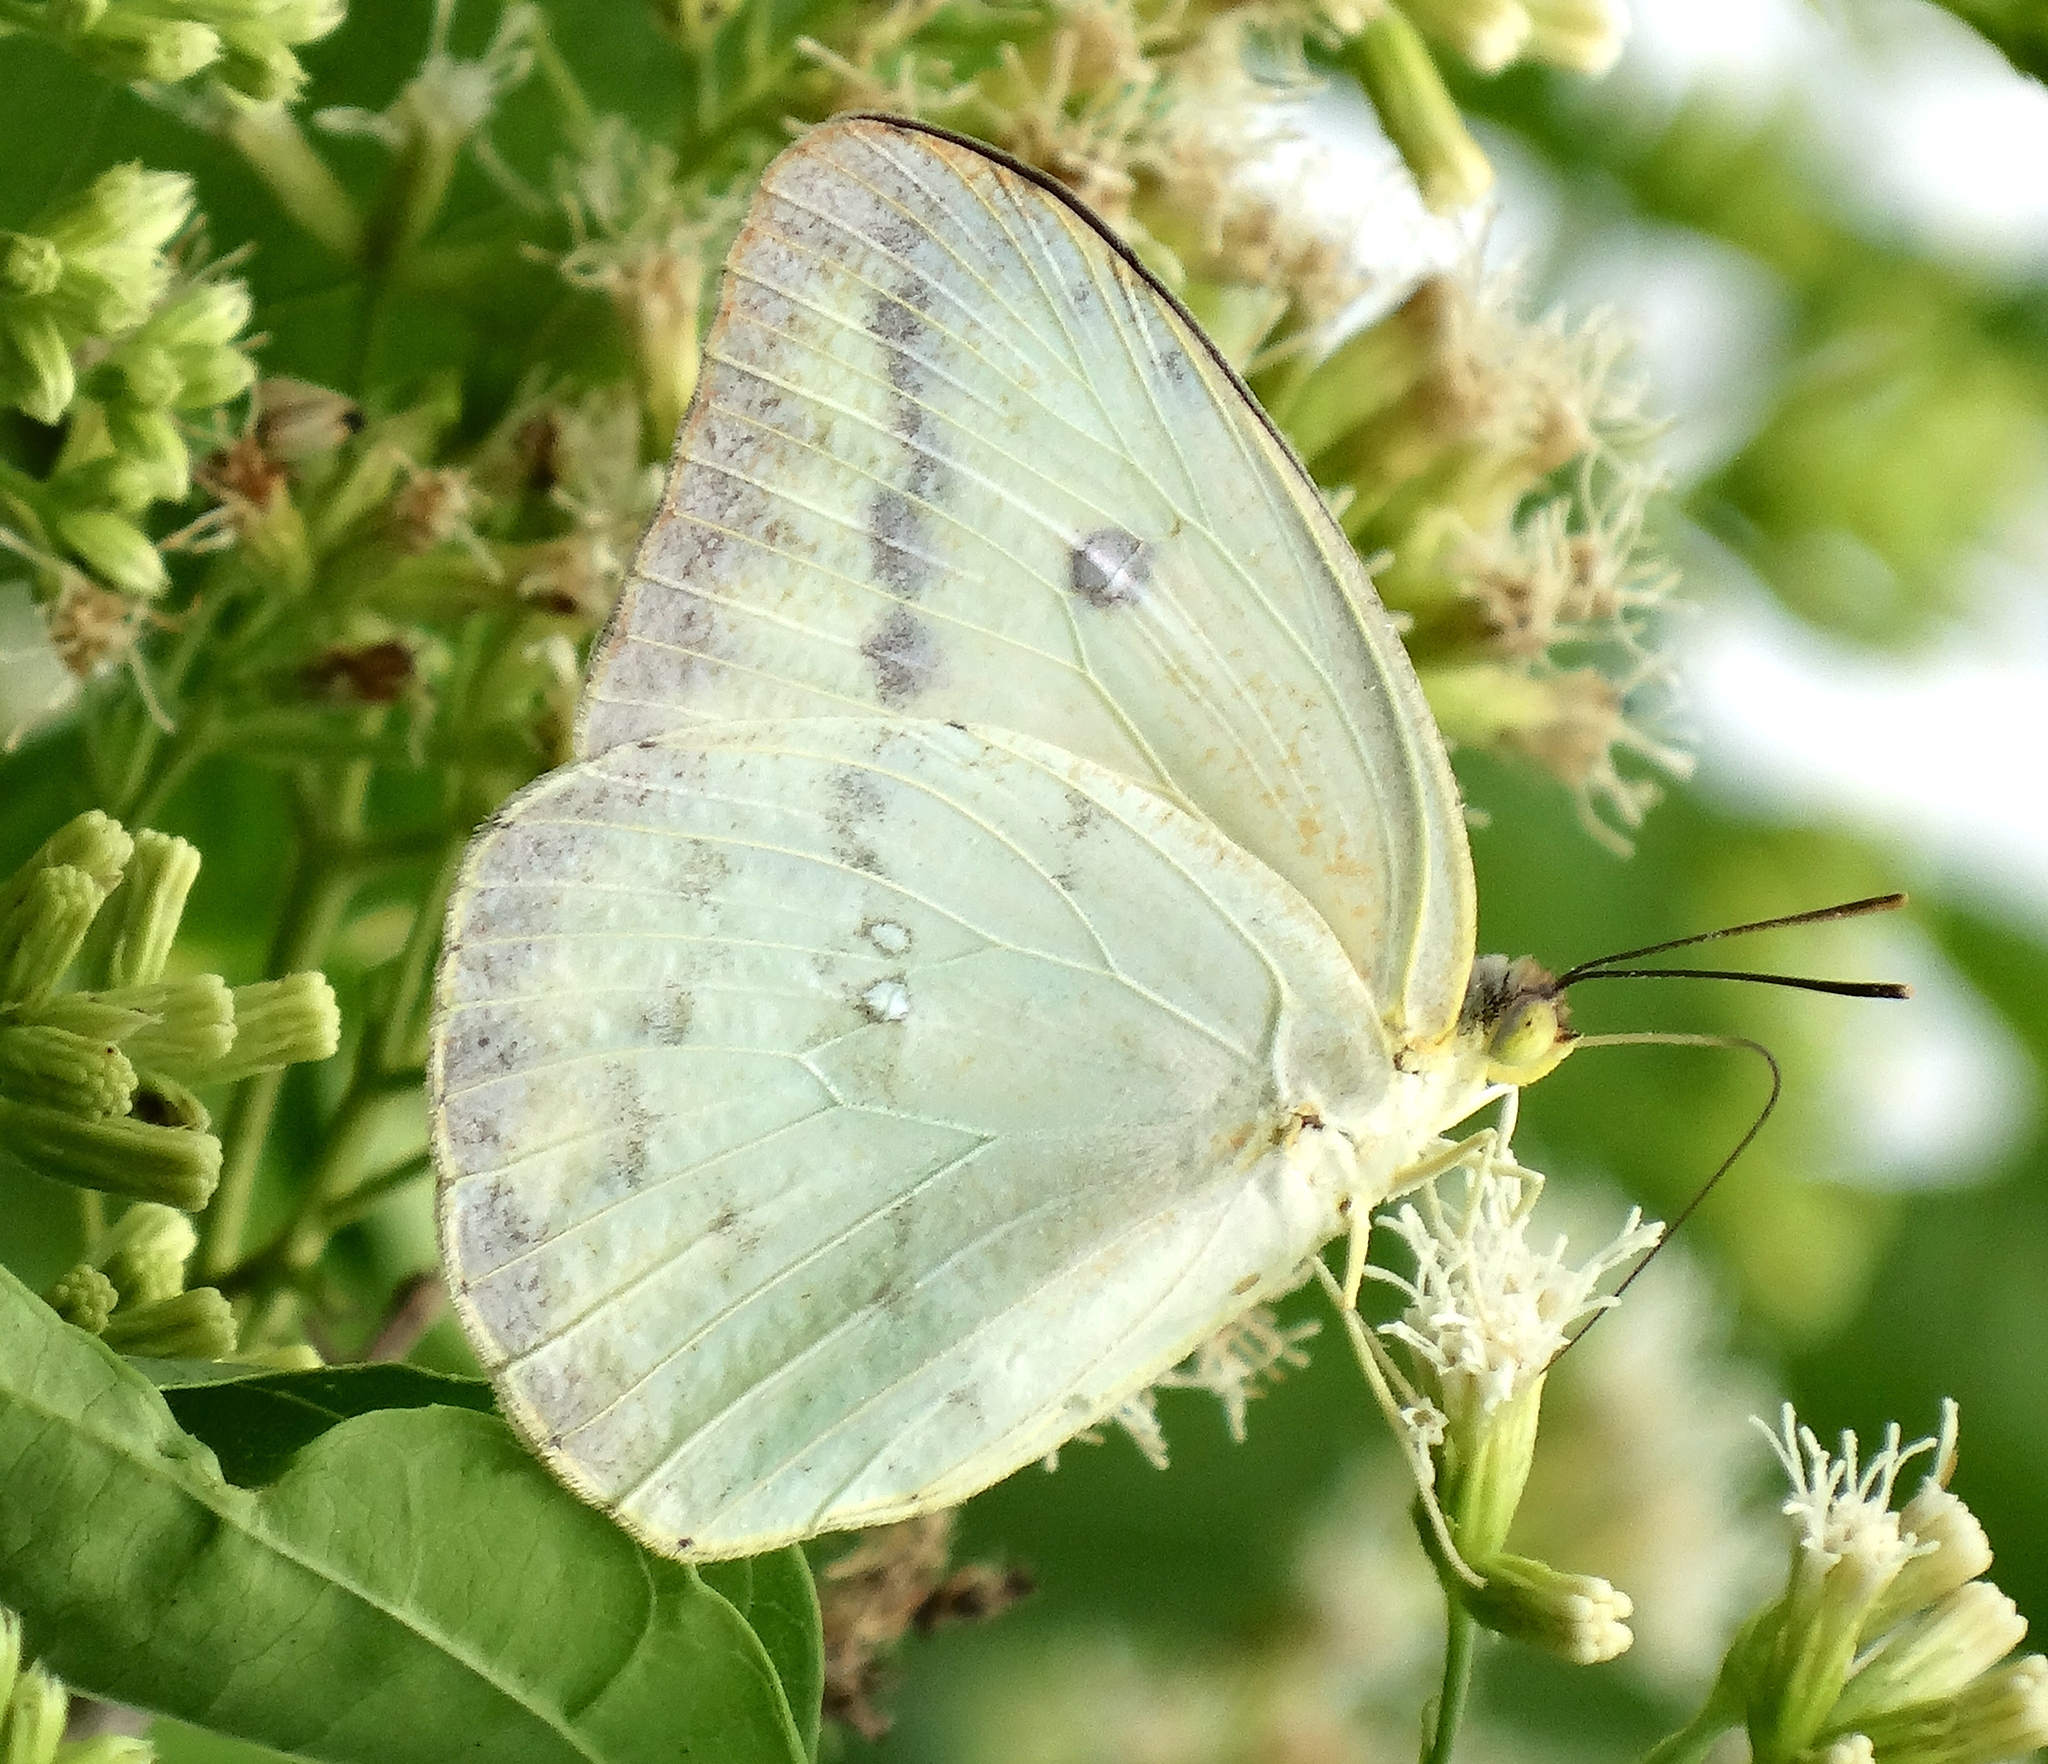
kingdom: Animalia
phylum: Arthropoda
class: Insecta
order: Lepidoptera
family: Pieridae
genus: Phoebis
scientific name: Phoebis agarithe
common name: Large orange sulphur
